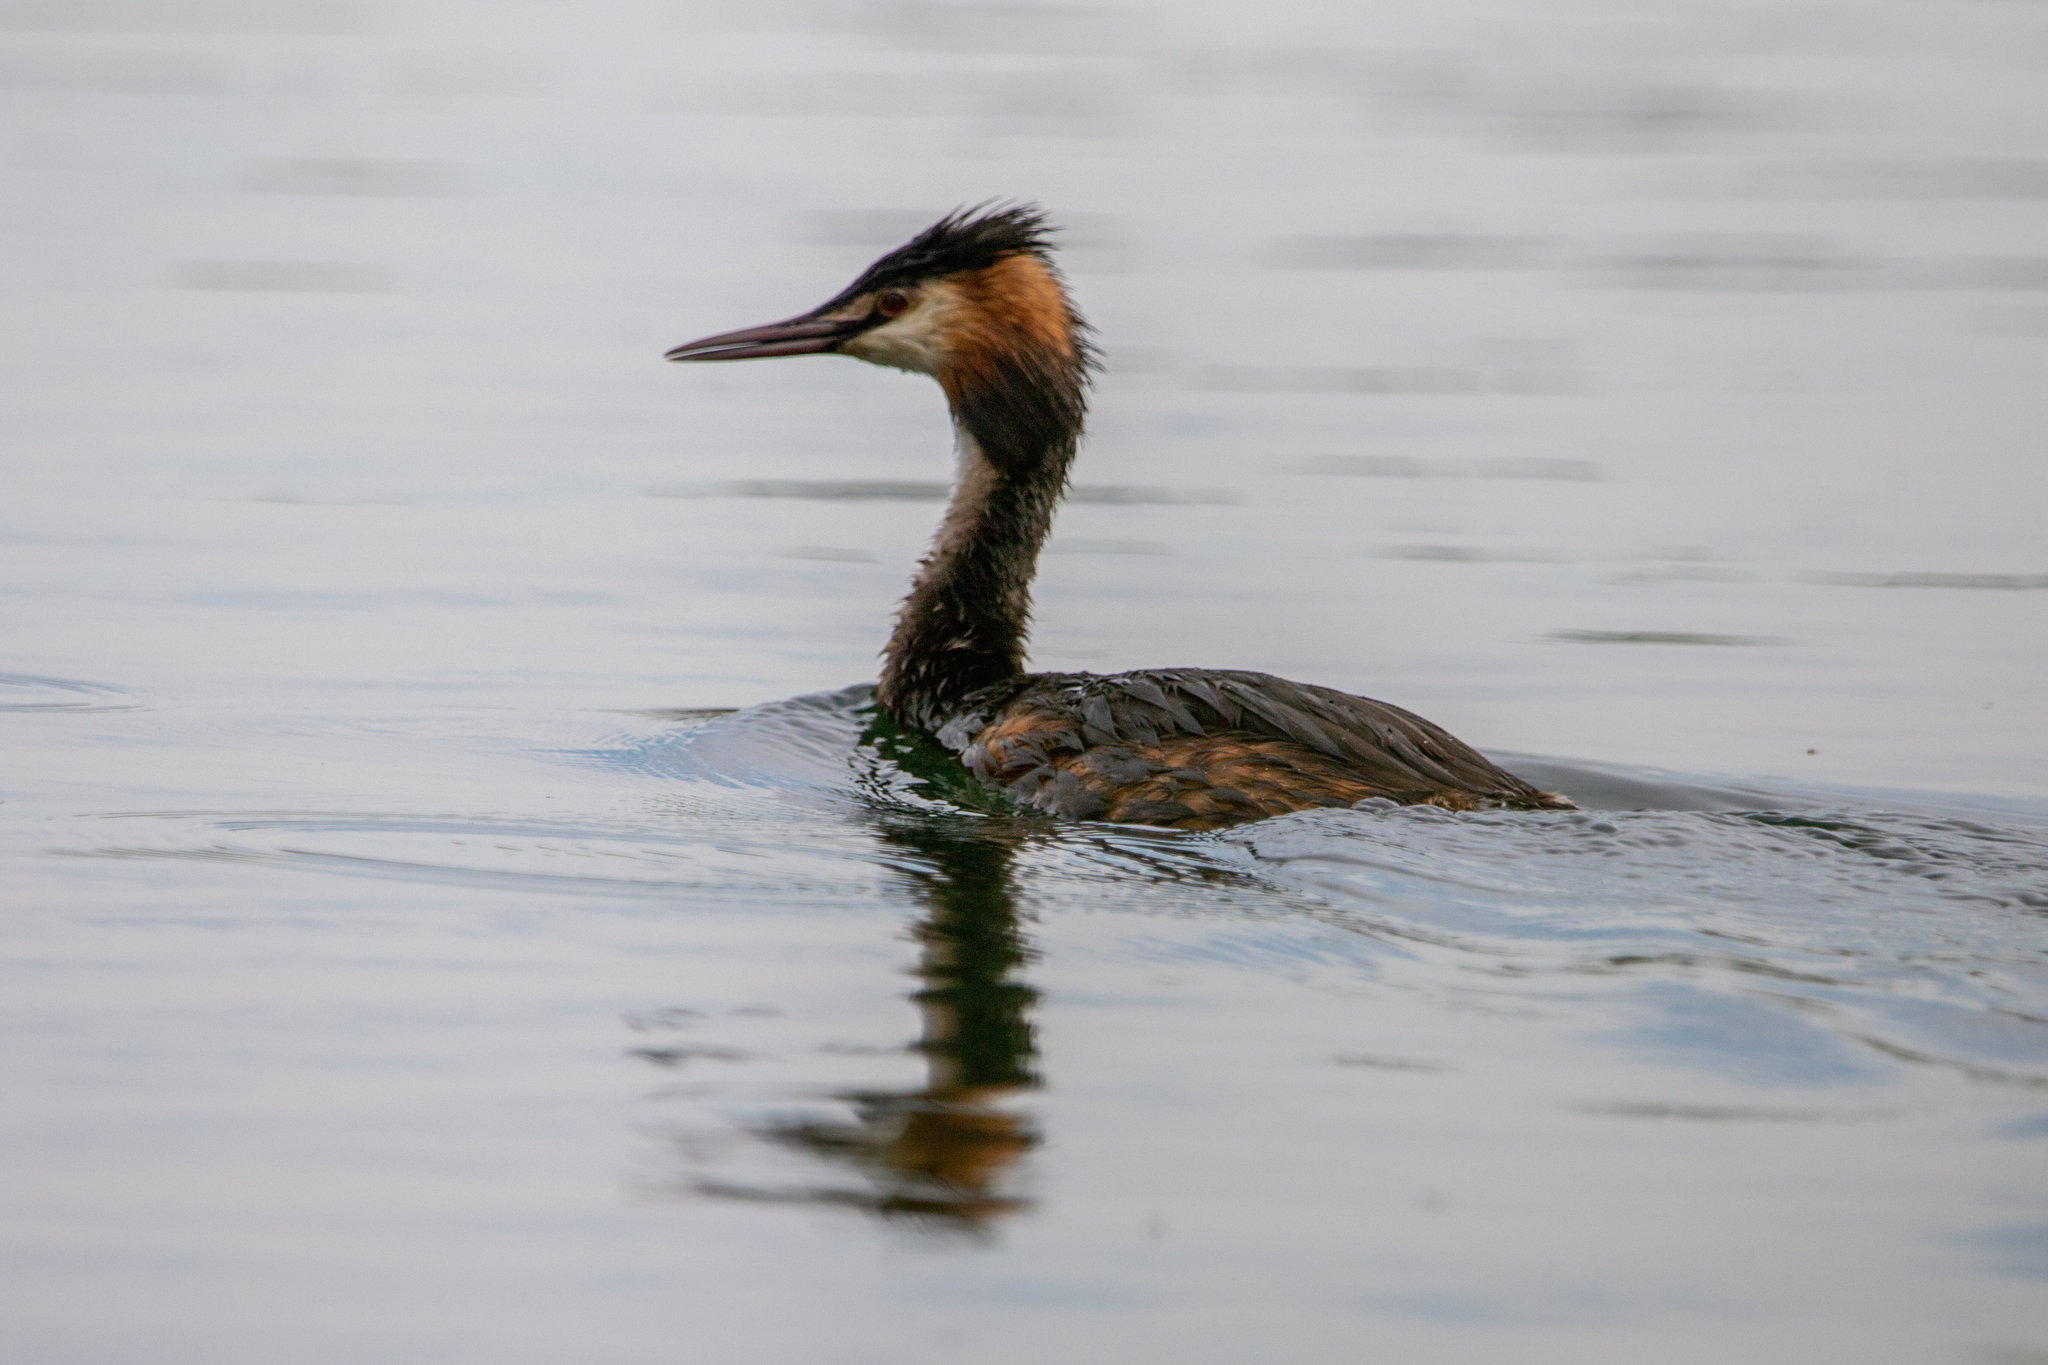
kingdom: Animalia
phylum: Chordata
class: Aves
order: Podicipediformes
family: Podicipedidae
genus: Podiceps
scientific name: Podiceps cristatus
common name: Great crested grebe
